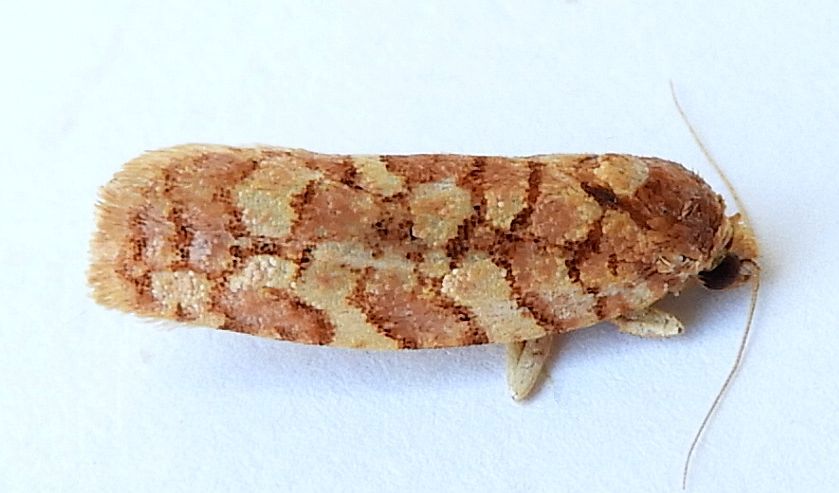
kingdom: Animalia
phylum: Arthropoda
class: Insecta
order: Lepidoptera
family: Tortricidae
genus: Choristoneura
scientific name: Choristoneura houstonana
